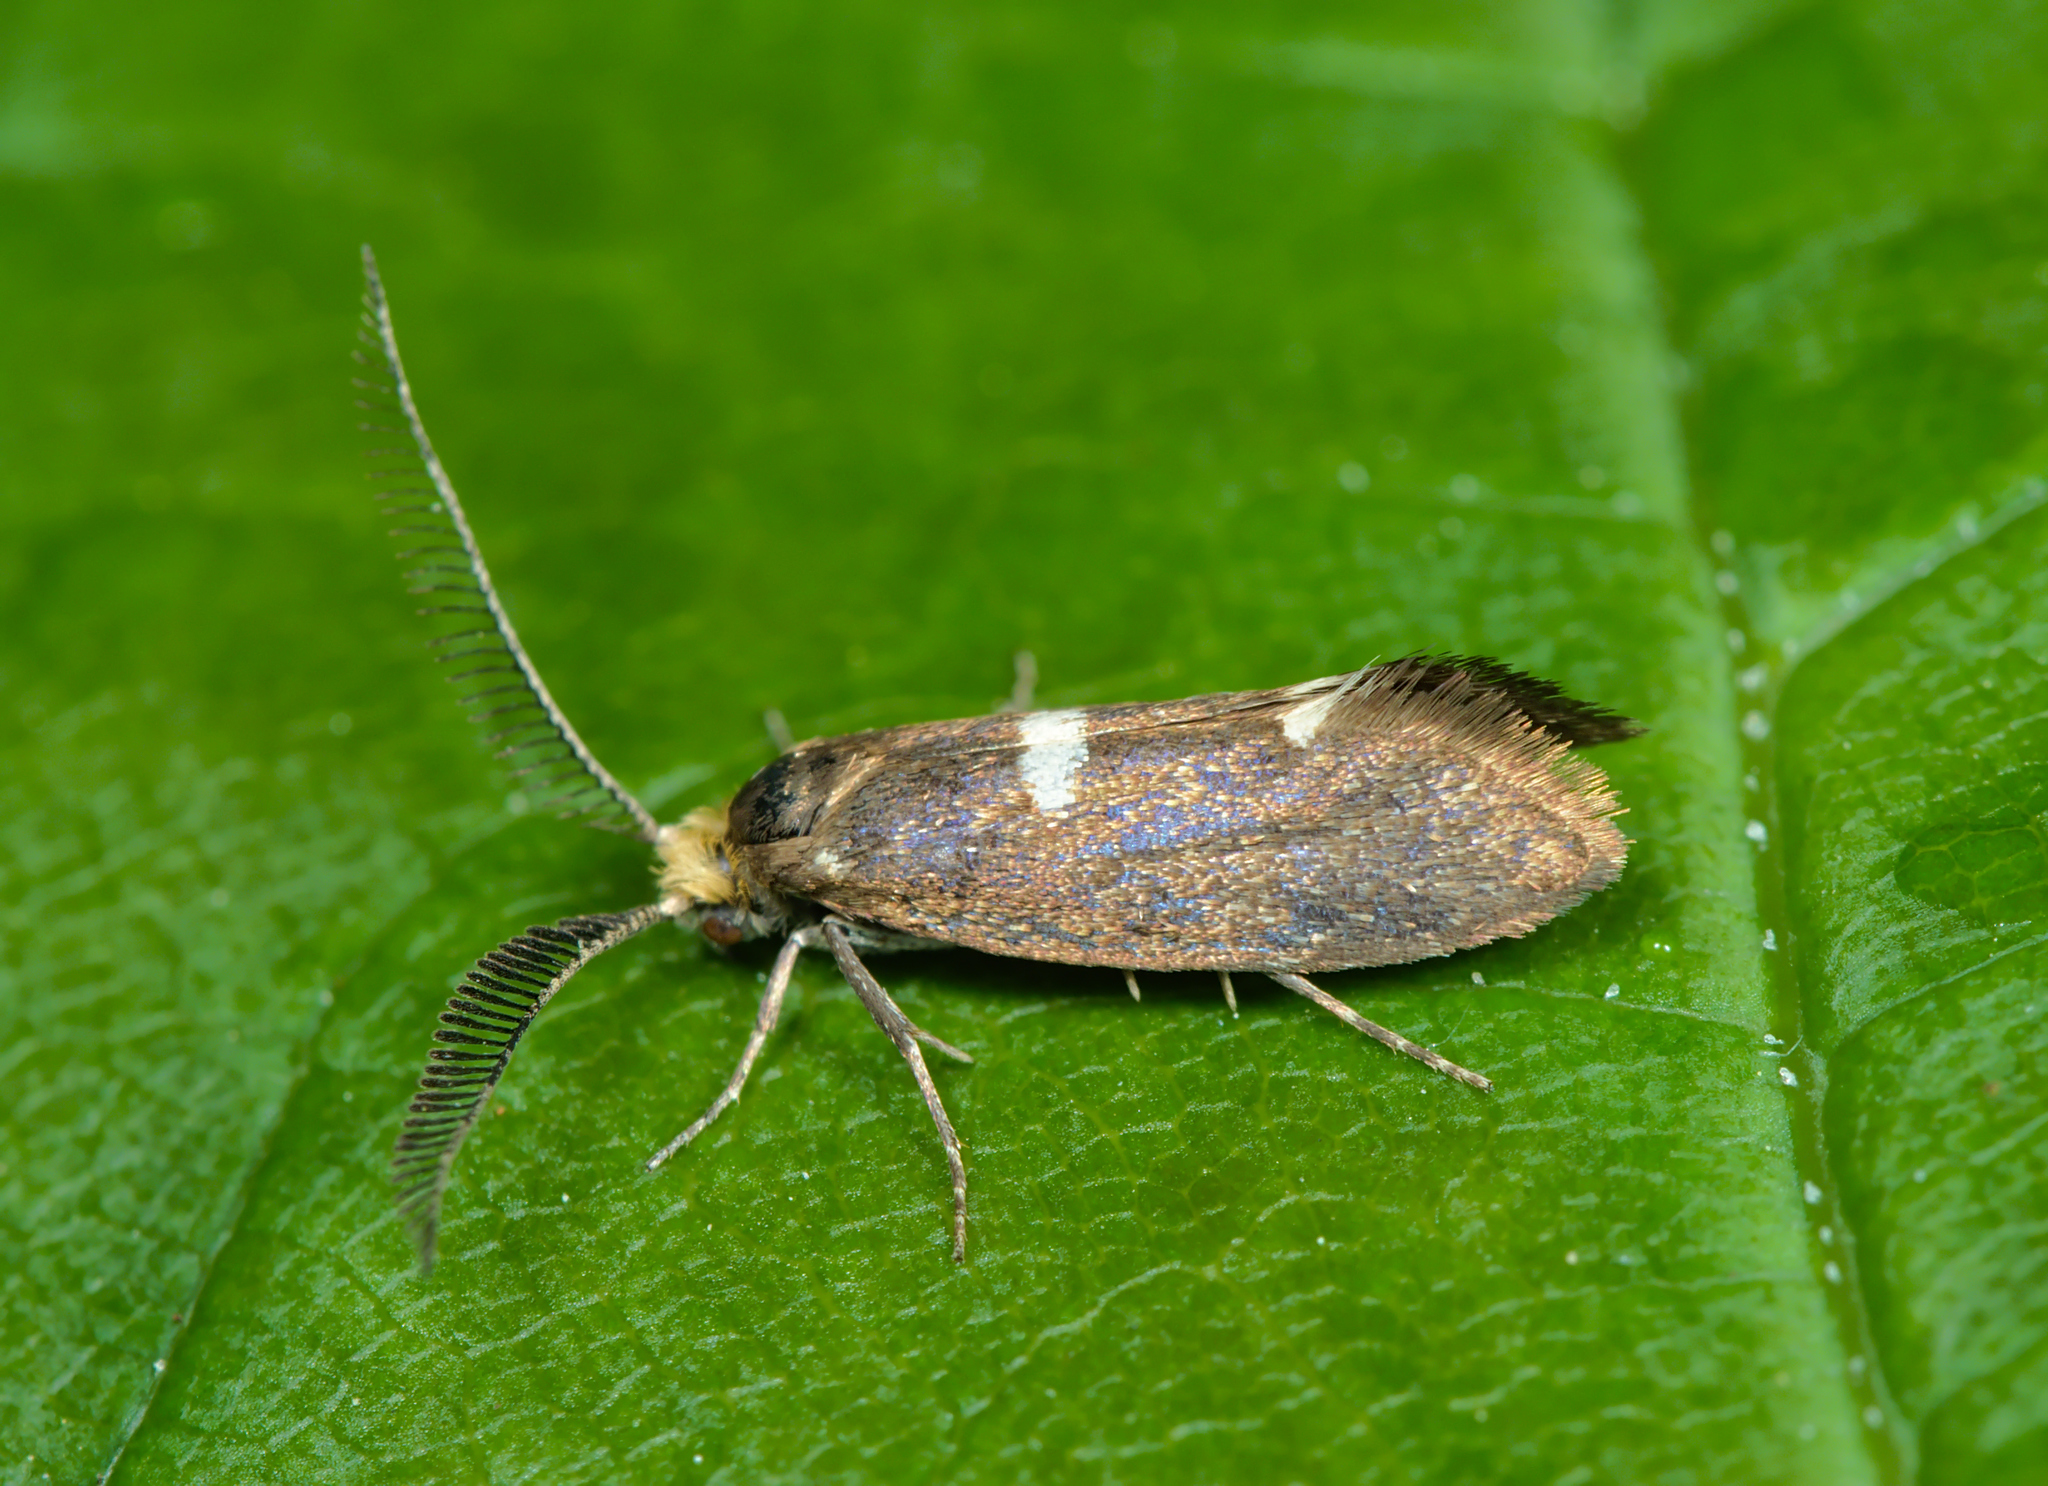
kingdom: Animalia
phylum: Arthropoda
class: Insecta
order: Lepidoptera
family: Incurvariidae
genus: Incurvaria
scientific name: Incurvaria pectinea
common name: Pale feathered leaf-cutter
